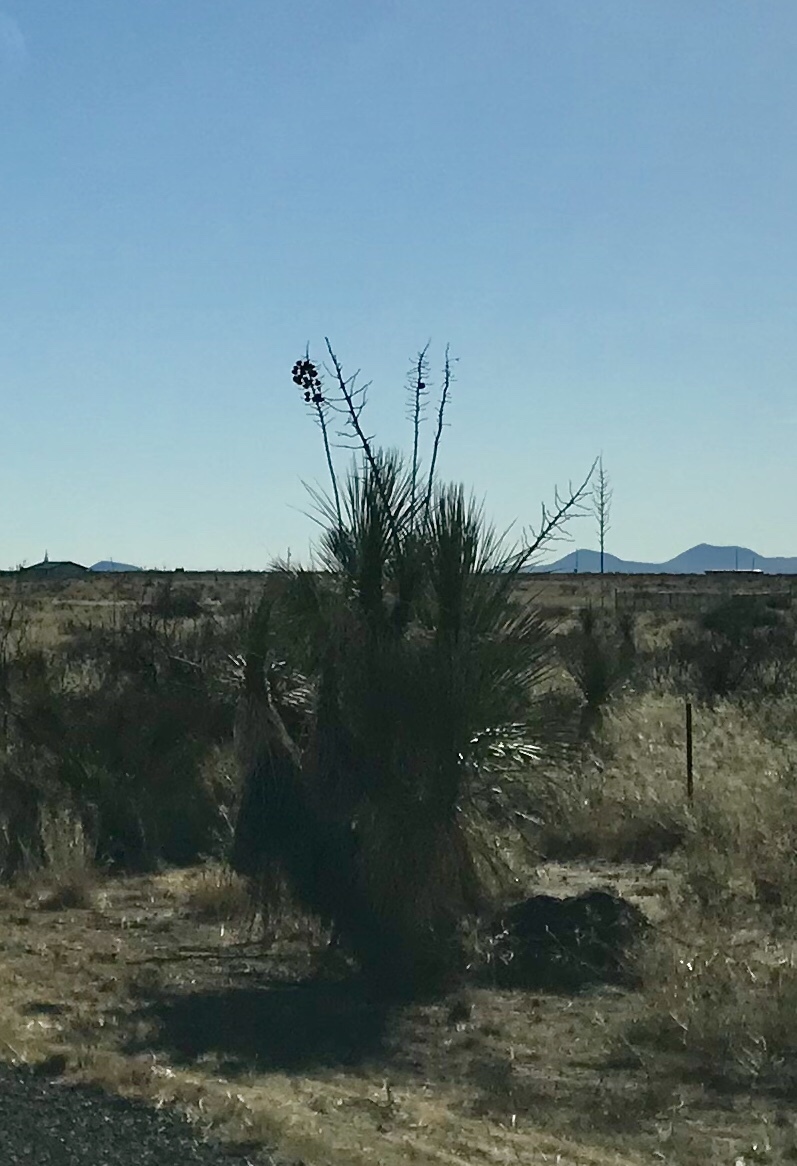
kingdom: Plantae
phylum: Tracheophyta
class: Liliopsida
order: Asparagales
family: Asparagaceae
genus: Yucca
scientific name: Yucca elata
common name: Palmella
